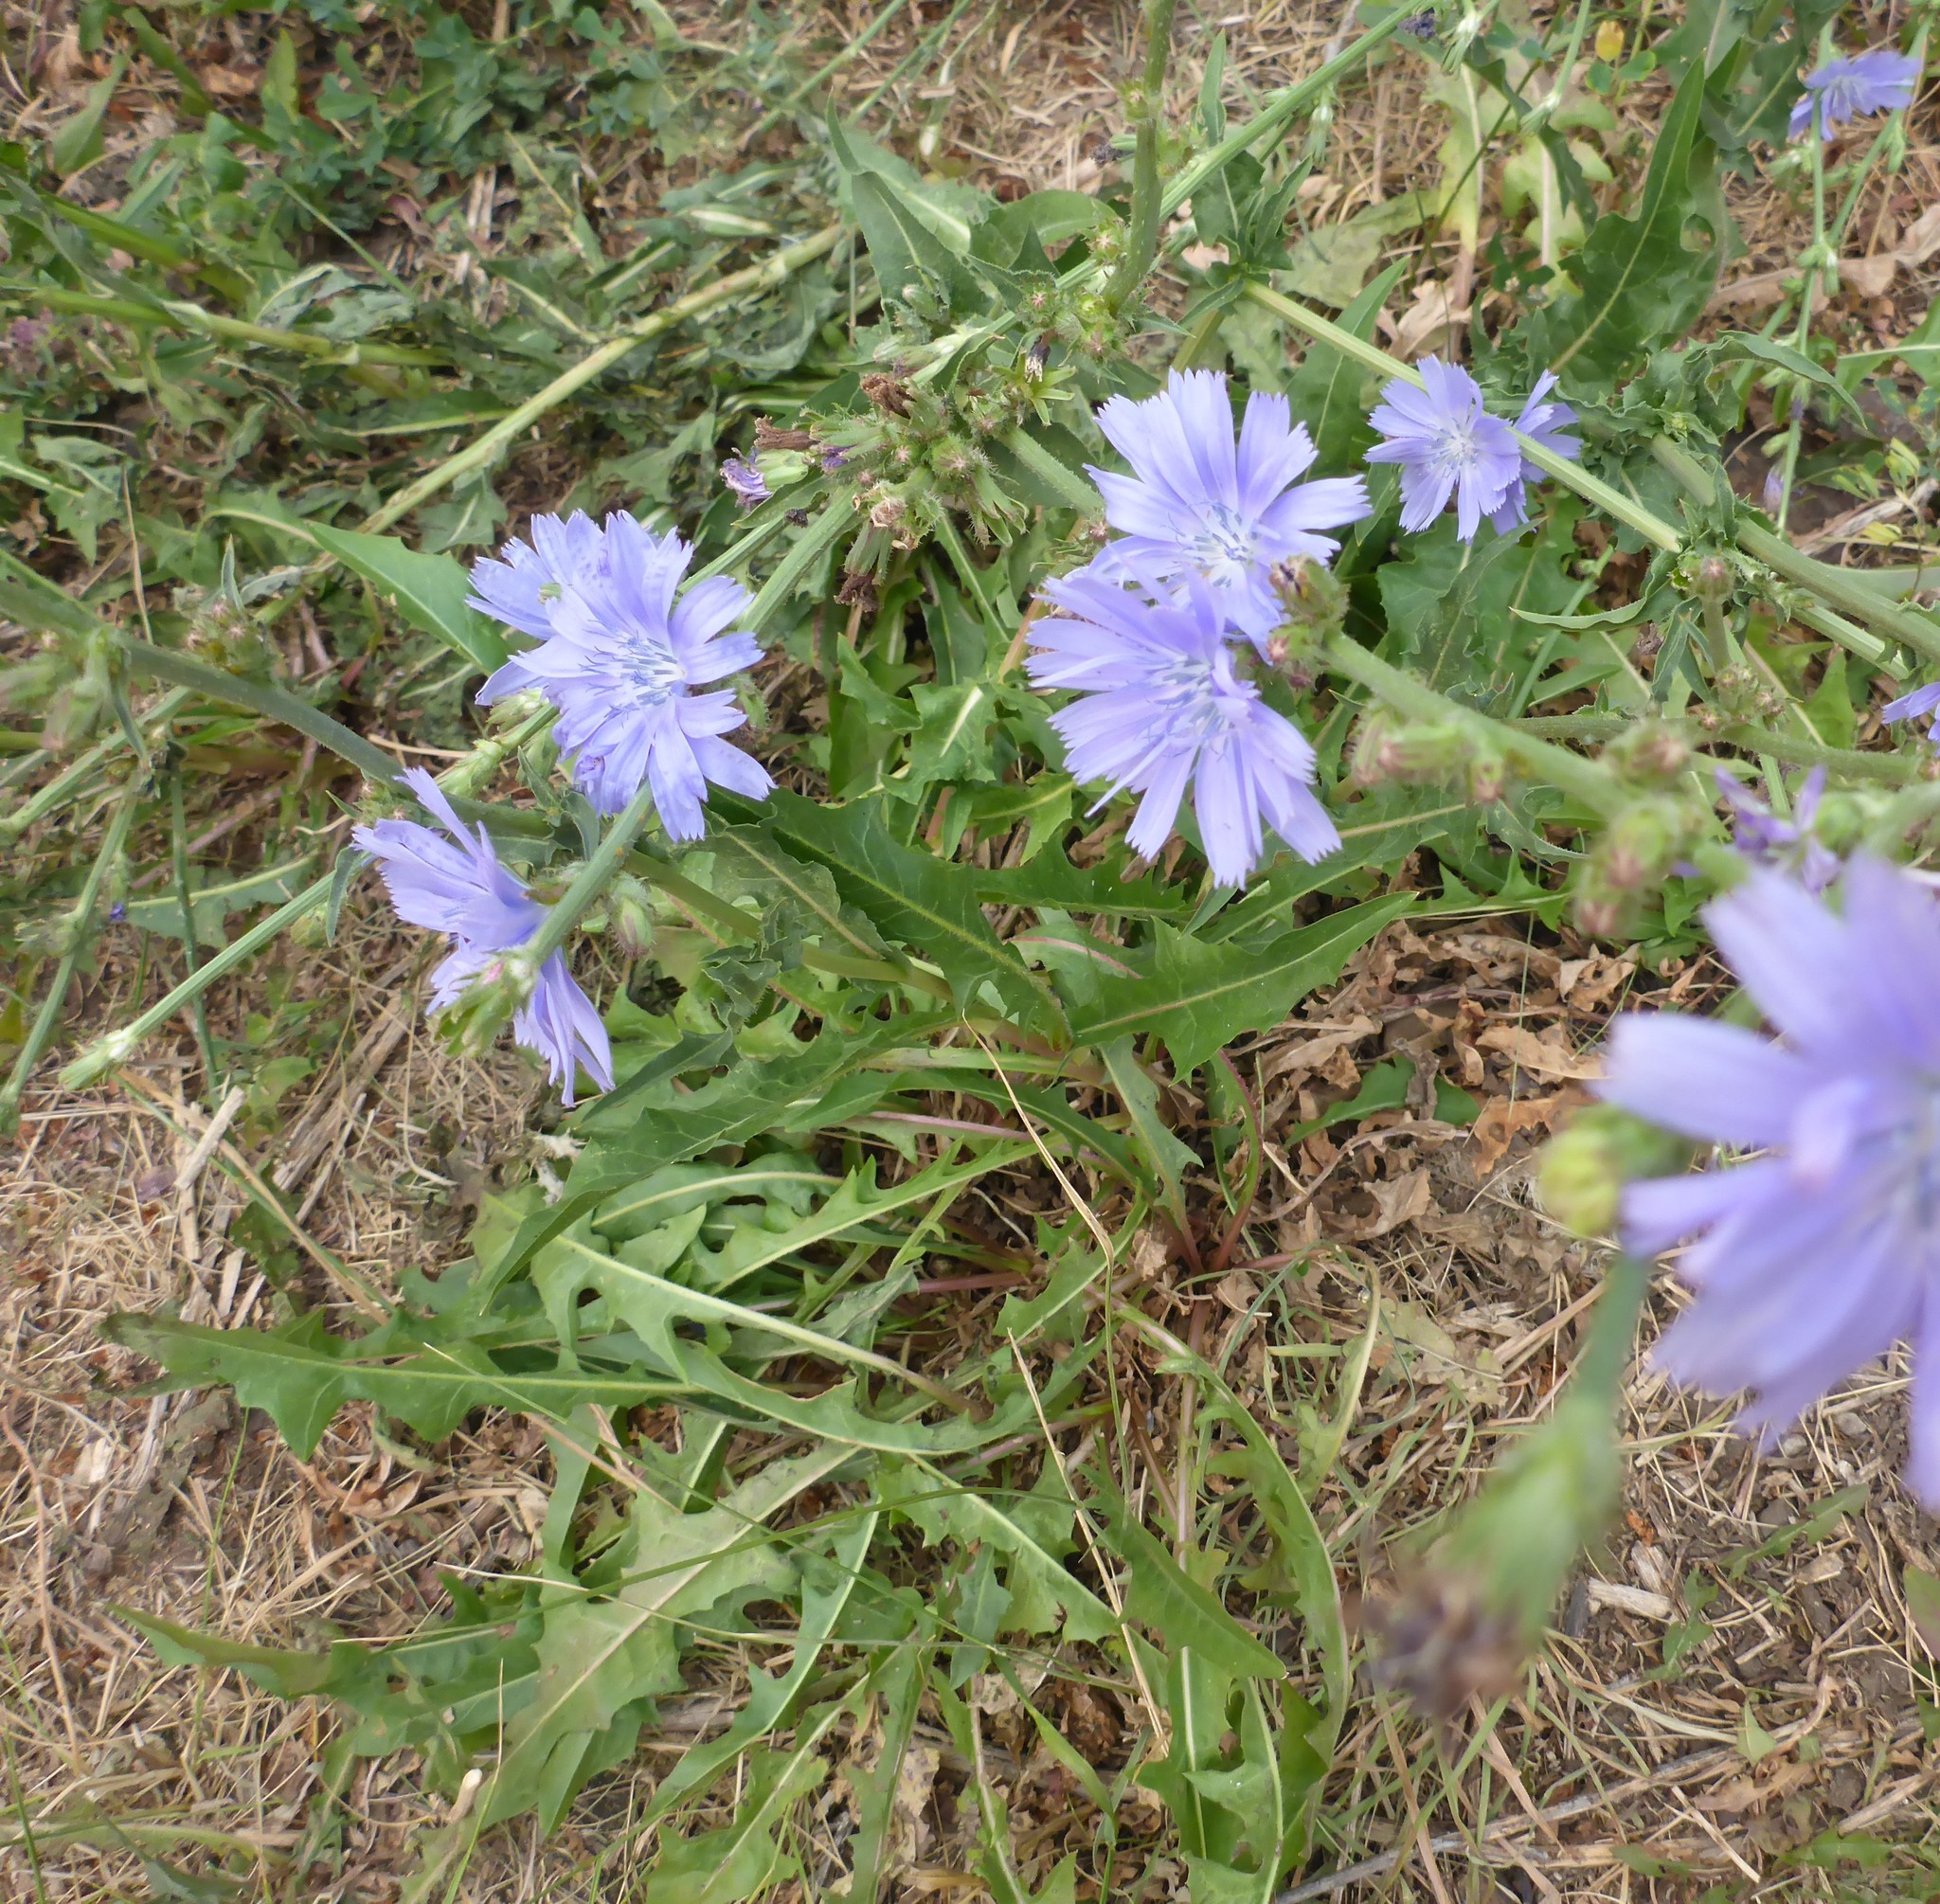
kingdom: Plantae
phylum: Tracheophyta
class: Magnoliopsida
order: Asterales
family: Asteraceae
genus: Cichorium
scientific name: Cichorium intybus
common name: Chicory
